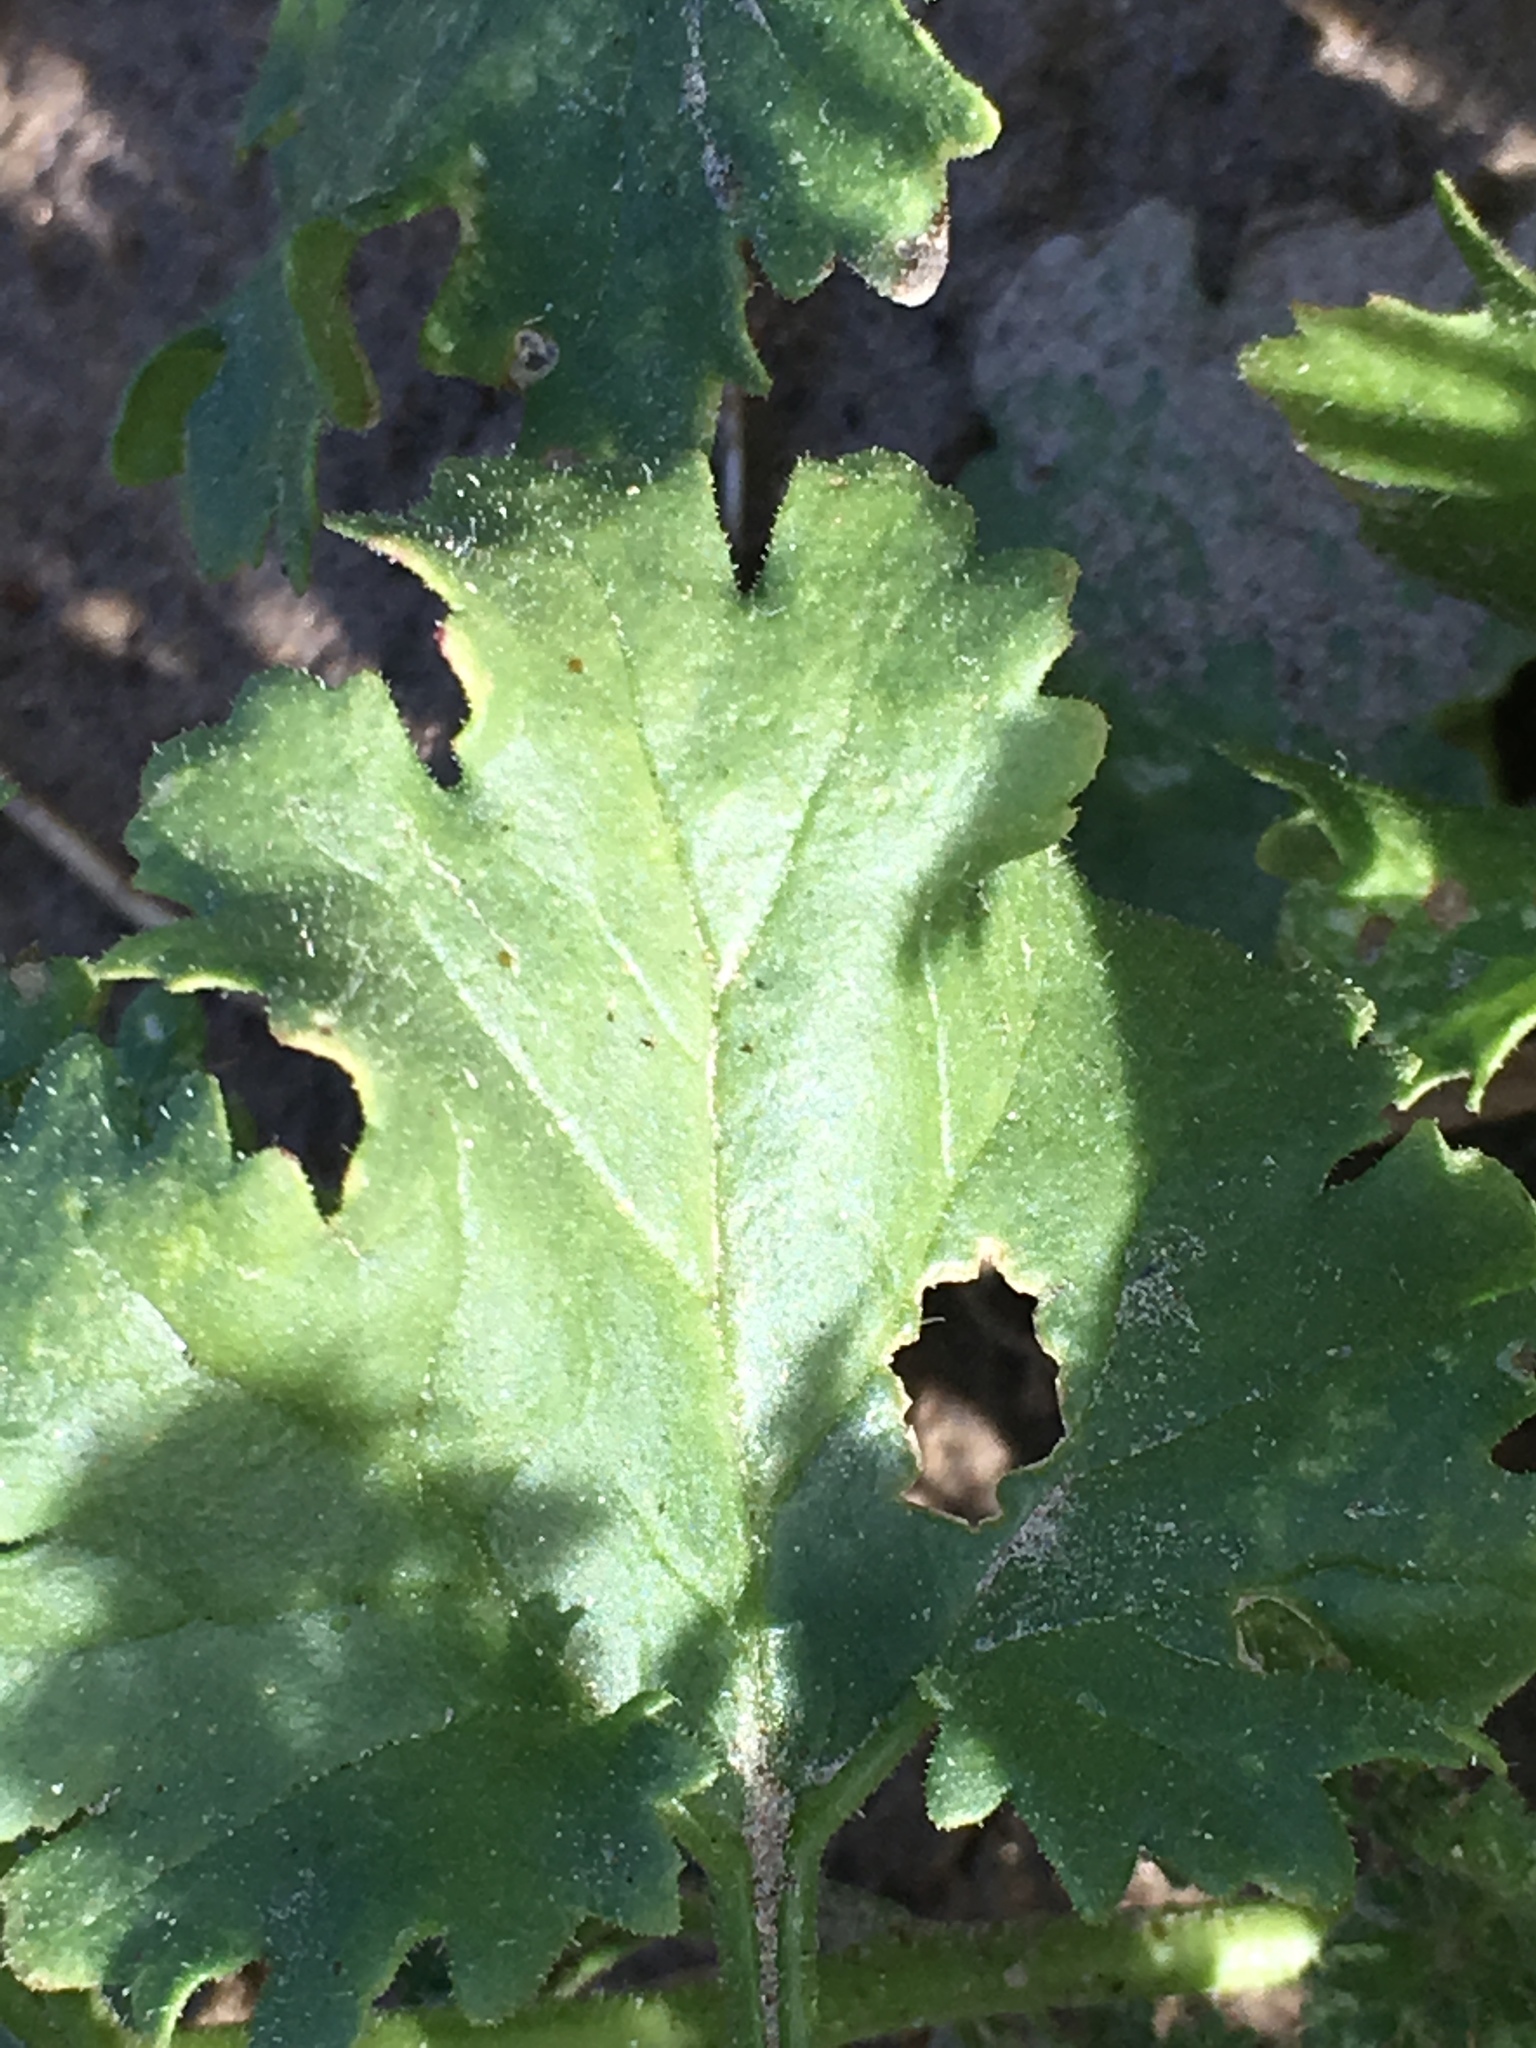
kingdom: Plantae
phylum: Tracheophyta
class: Magnoliopsida
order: Asterales
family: Asteraceae
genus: Laphamia
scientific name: Laphamia emoryi
